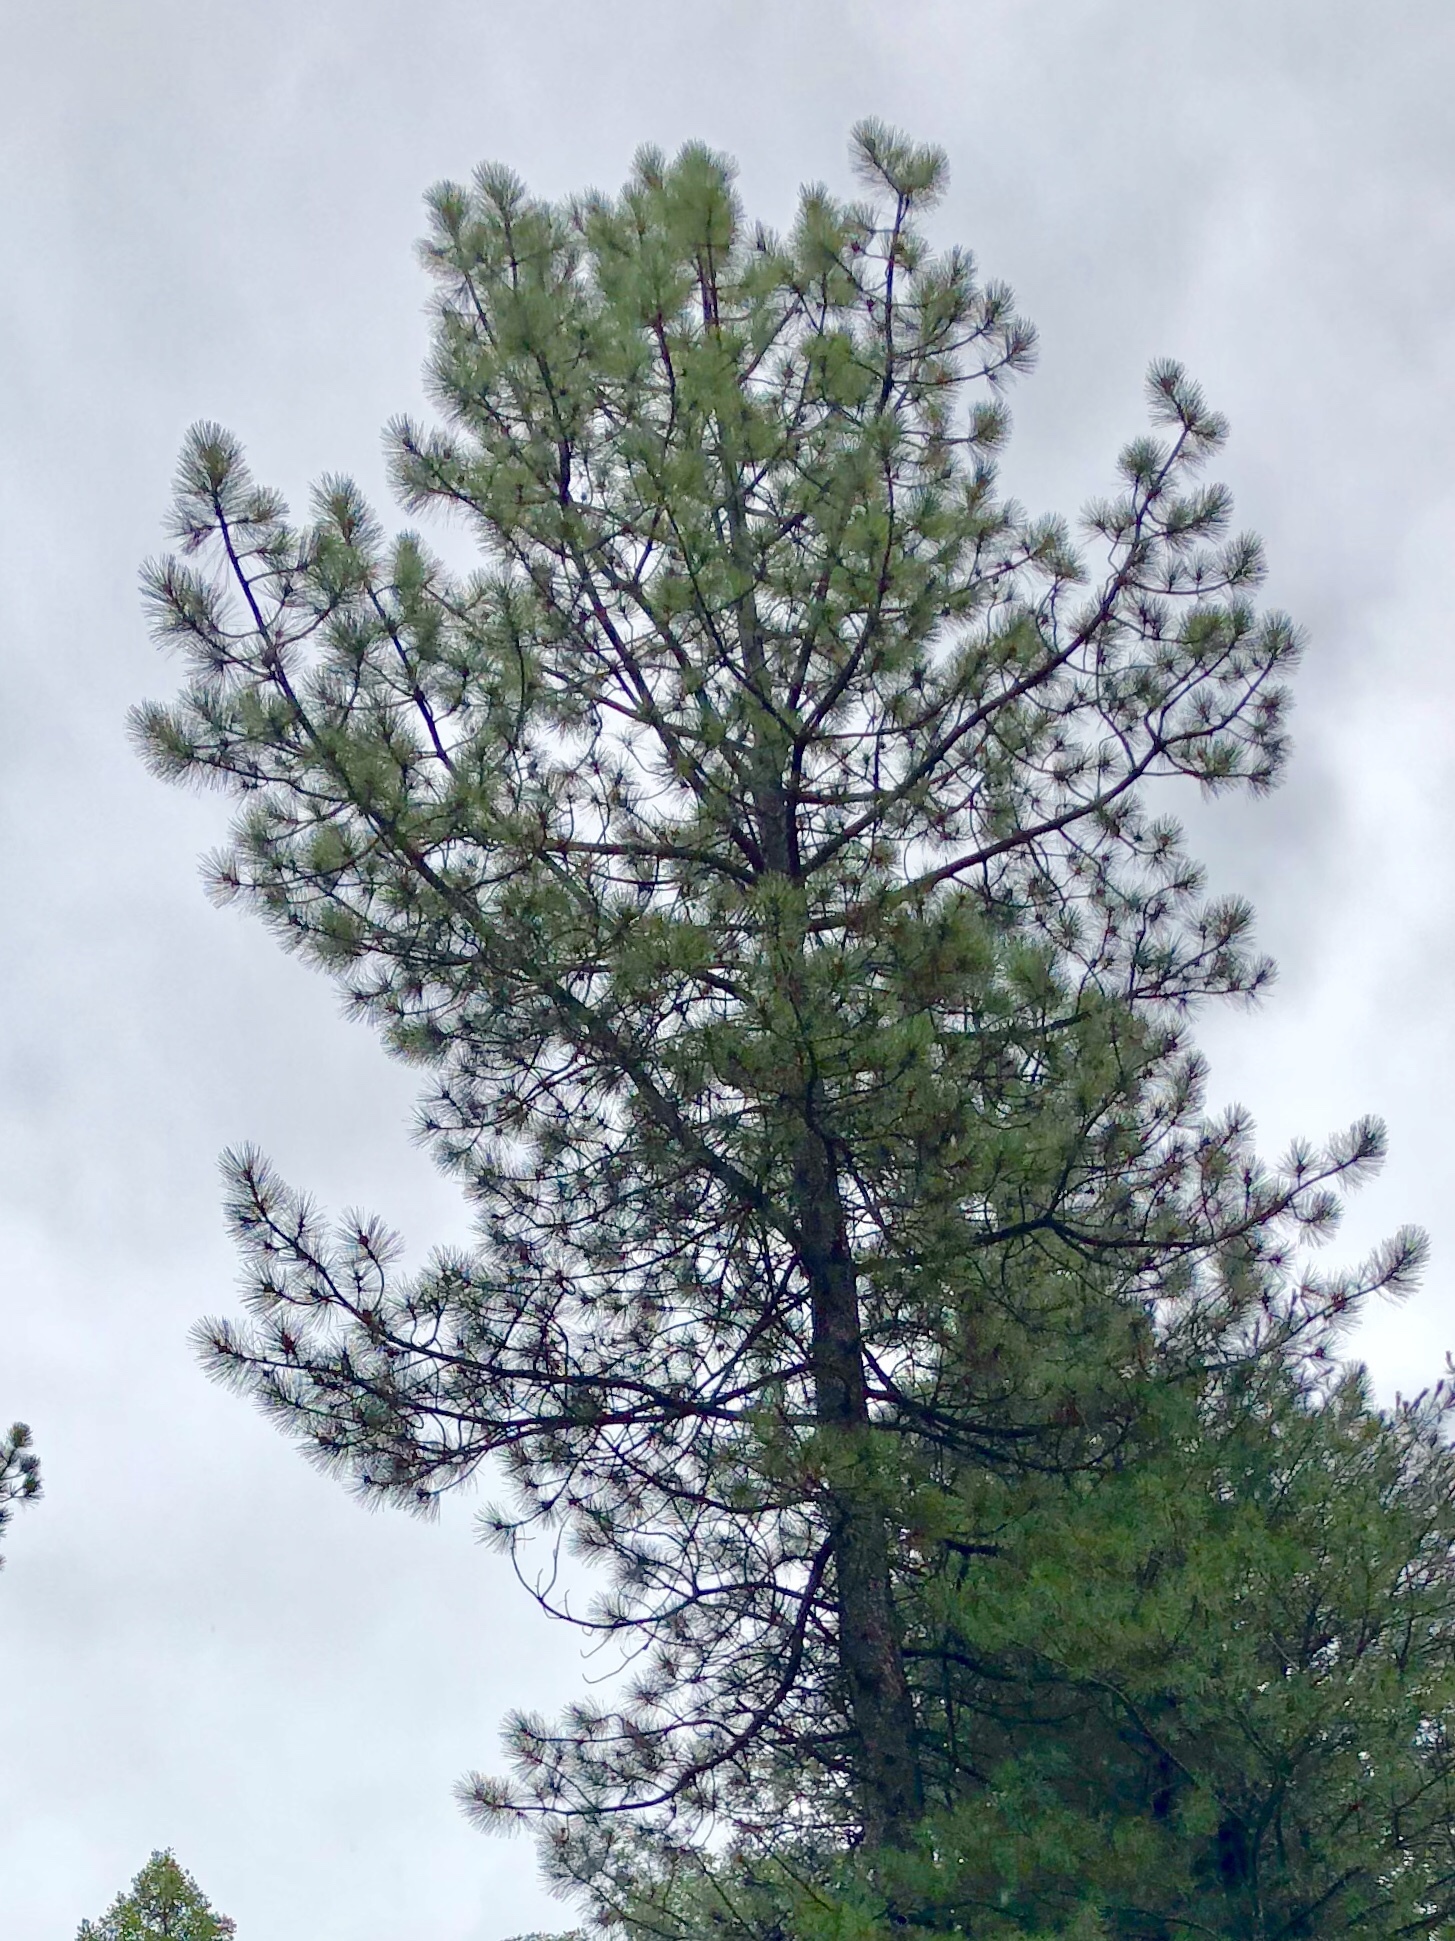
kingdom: Plantae
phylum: Tracheophyta
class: Pinopsida
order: Pinales
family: Pinaceae
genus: Pinus
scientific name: Pinus ponderosa
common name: Western yellow-pine
